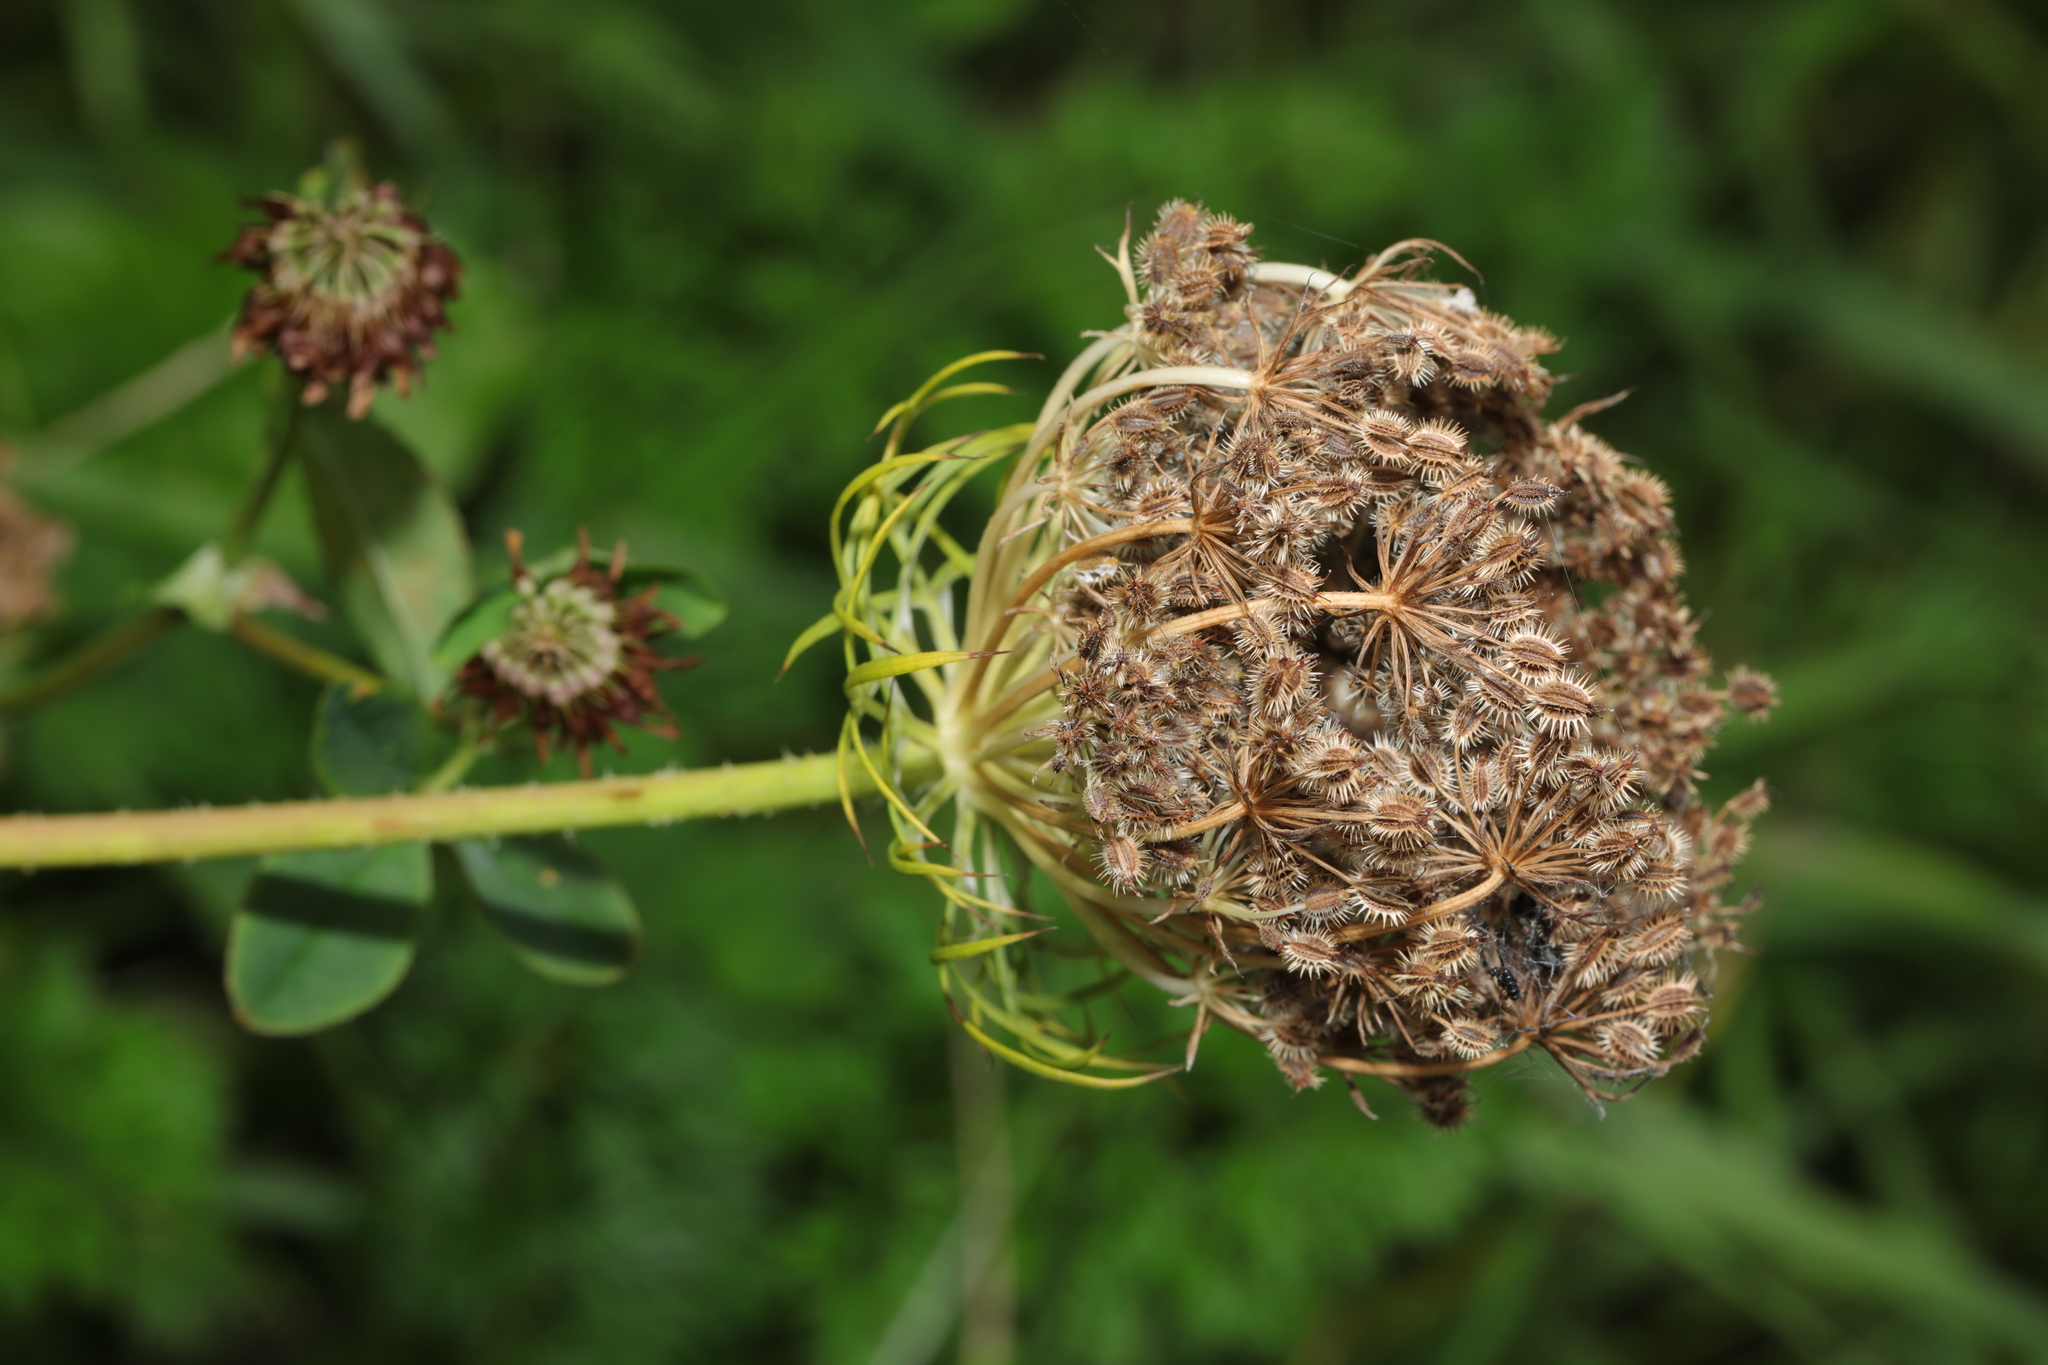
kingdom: Plantae
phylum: Tracheophyta
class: Magnoliopsida
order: Apiales
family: Apiaceae
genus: Daucus
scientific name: Daucus carota
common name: Wild carrot
